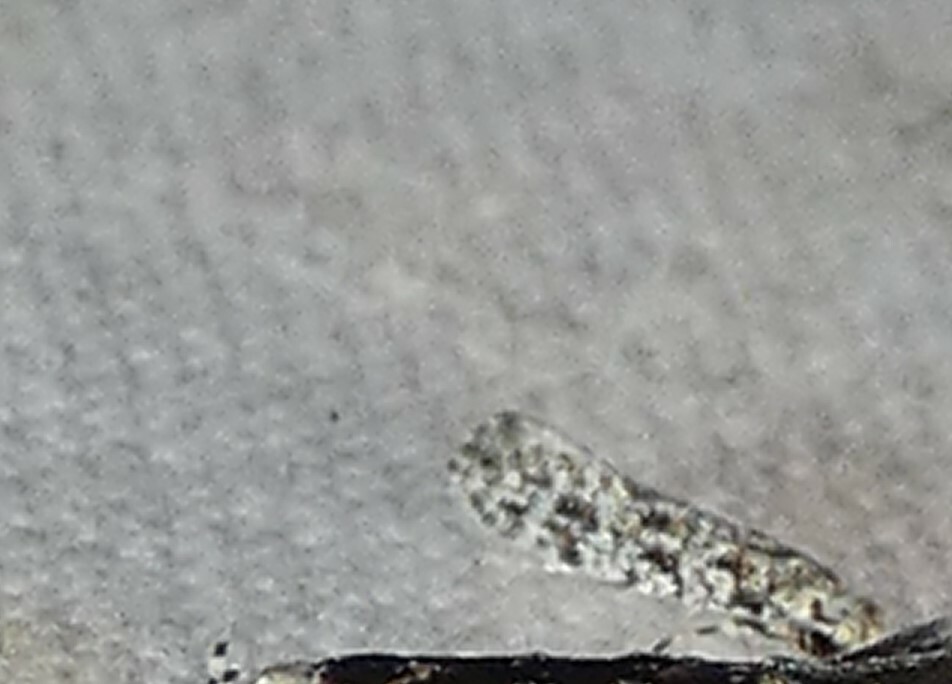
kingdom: Animalia
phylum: Arthropoda
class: Insecta
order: Lepidoptera
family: Meessiidae
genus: Diachorisia
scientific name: Diachorisia velatella
